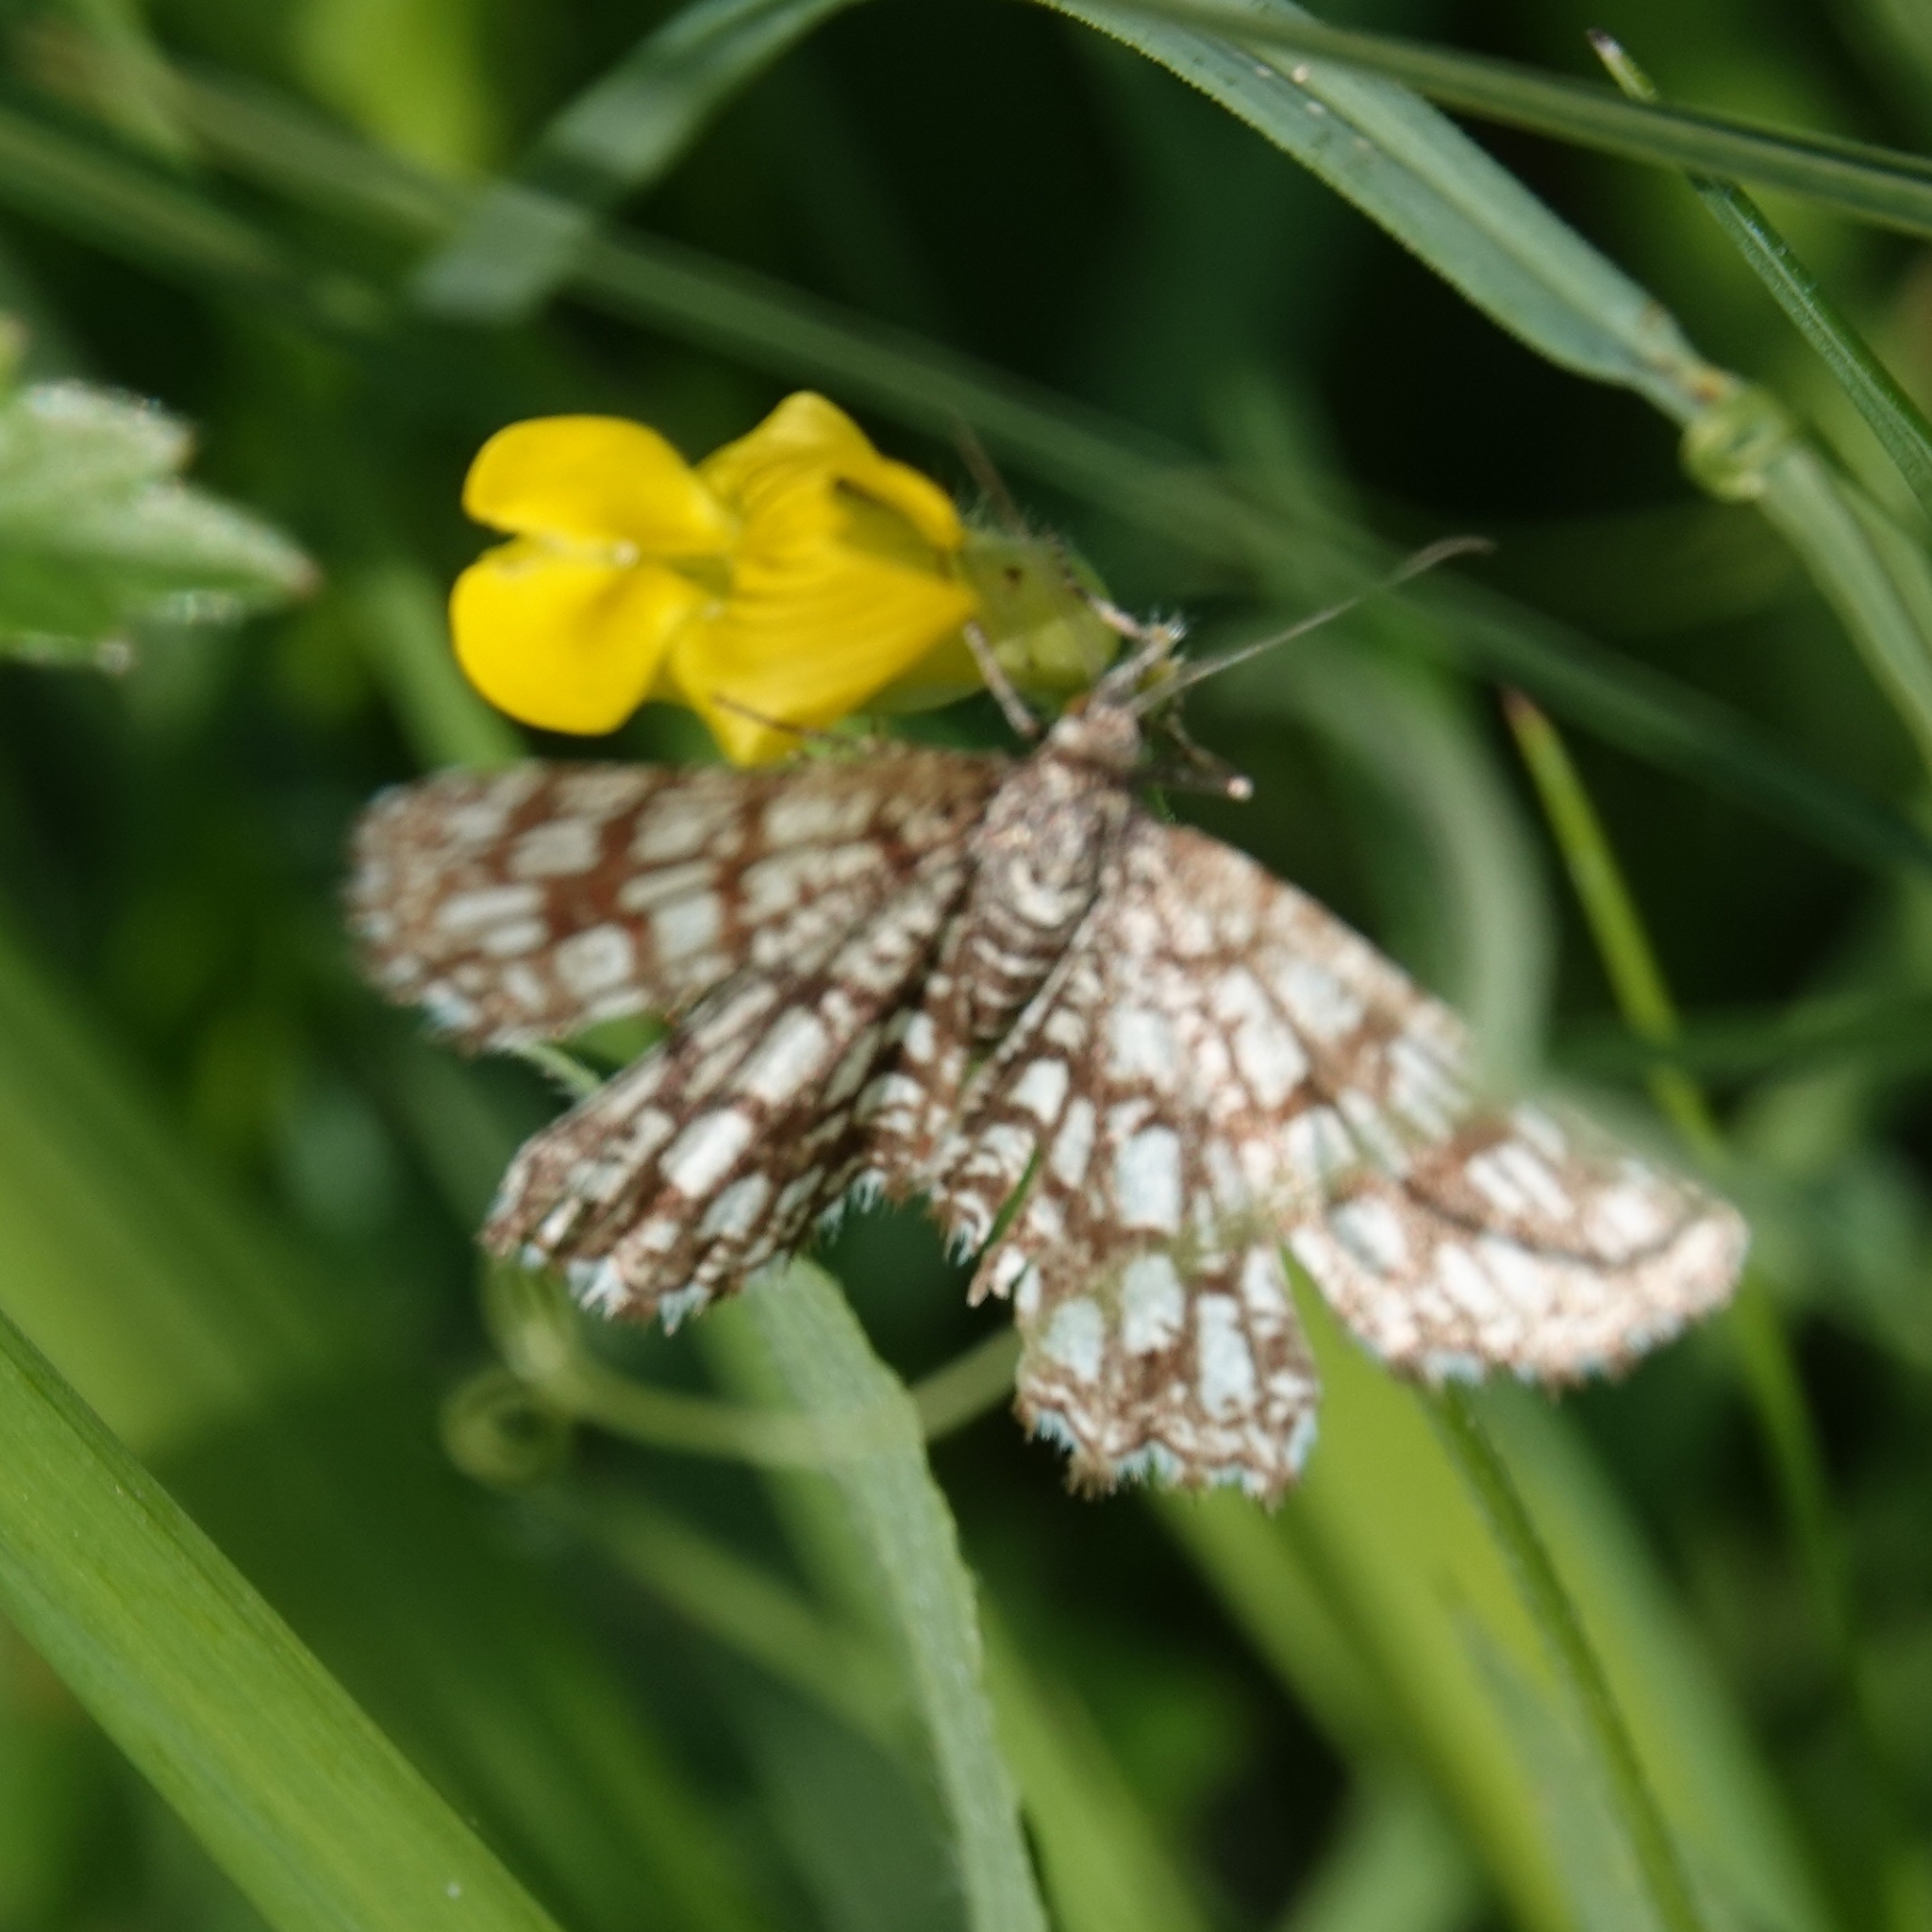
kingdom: Animalia
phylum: Arthropoda
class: Insecta
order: Lepidoptera
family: Geometridae
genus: Chiasmia
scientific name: Chiasmia clathrata
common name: Latticed heath
